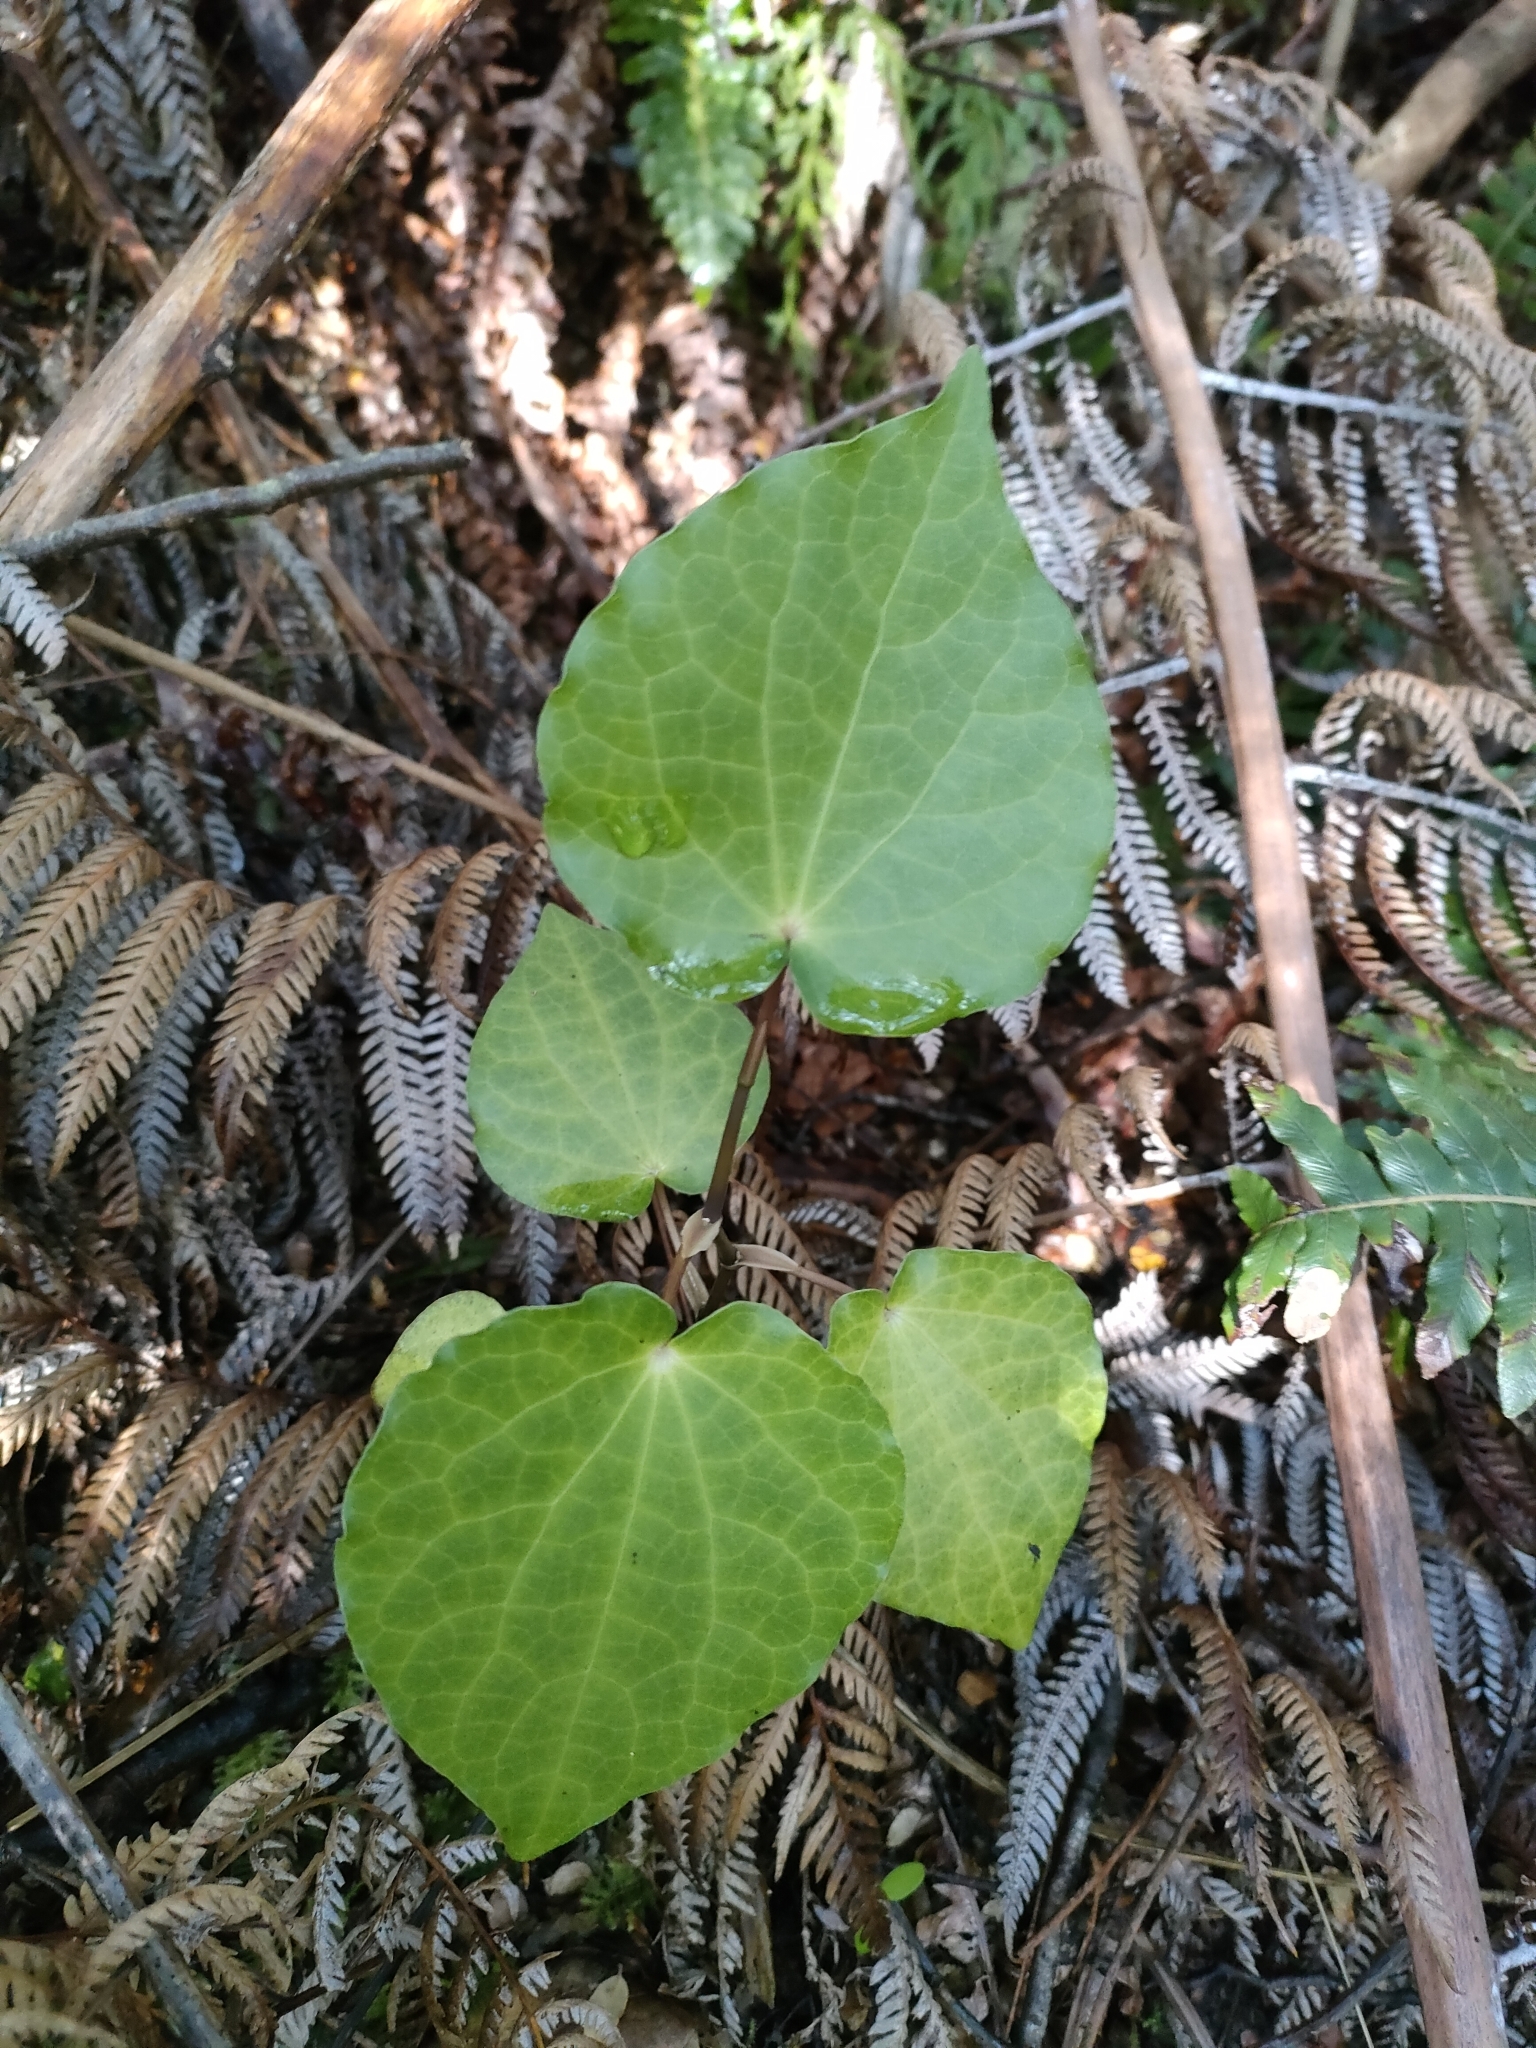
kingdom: Plantae
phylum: Tracheophyta
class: Magnoliopsida
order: Piperales
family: Piperaceae
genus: Macropiper
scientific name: Macropiper excelsum
